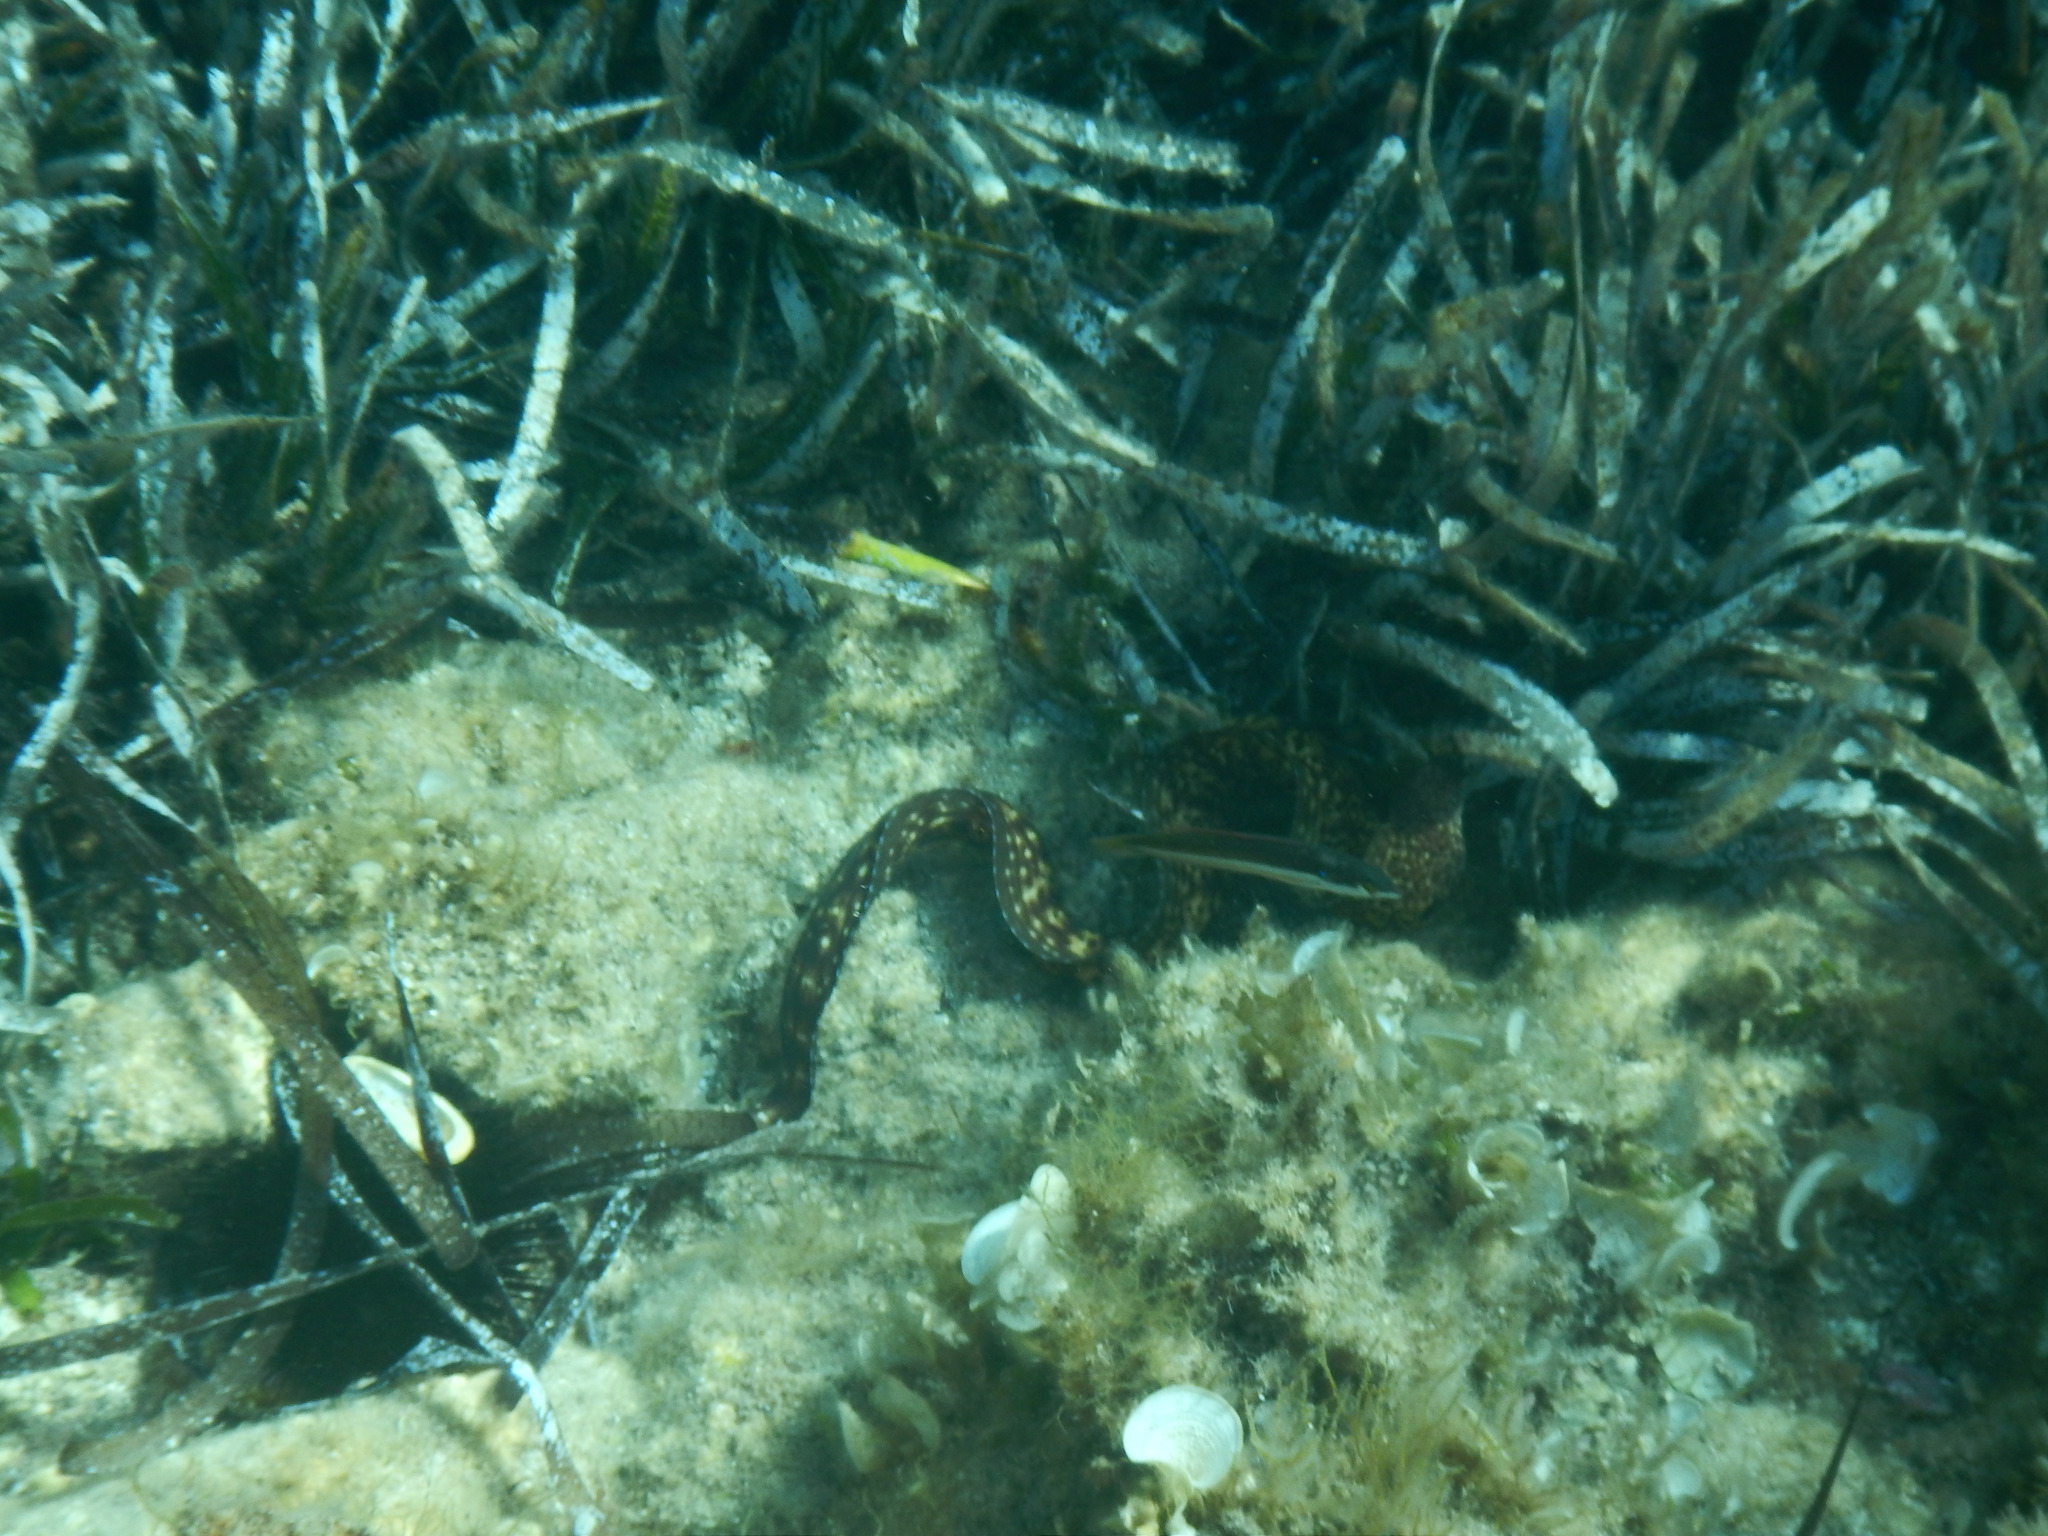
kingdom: Animalia
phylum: Chordata
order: Anguilliformes
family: Muraenidae
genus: Muraena
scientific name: Muraena helena
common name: Mediterranean moray
